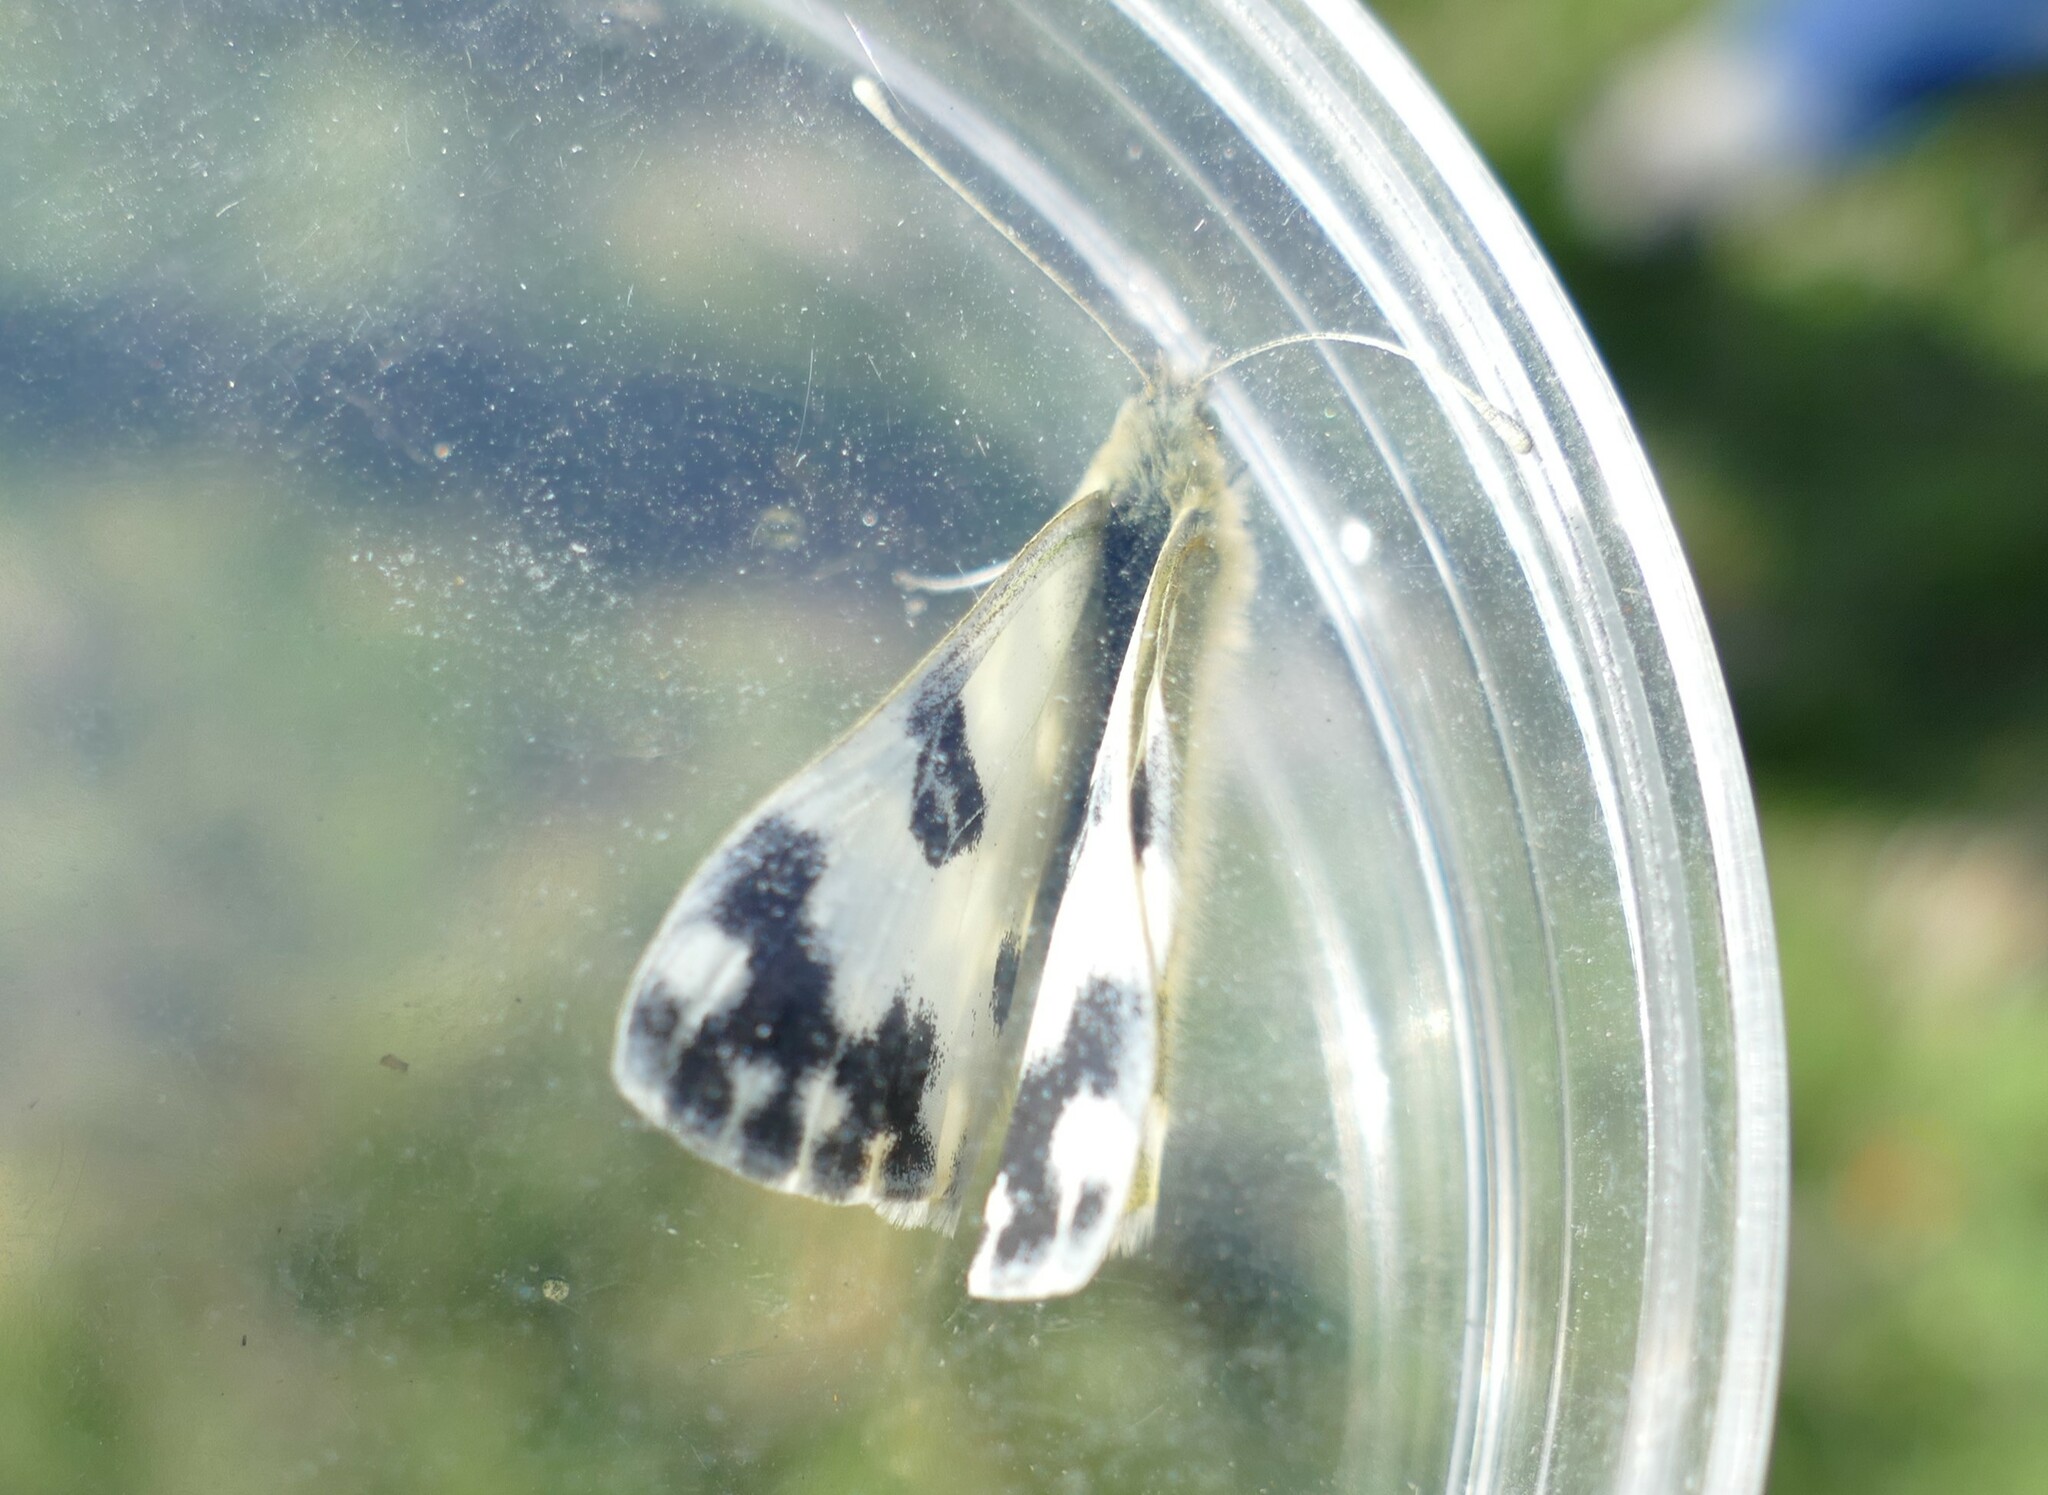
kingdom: Animalia
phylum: Arthropoda
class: Insecta
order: Lepidoptera
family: Pieridae
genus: Pontia
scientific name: Pontia daplidice
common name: Bath white
